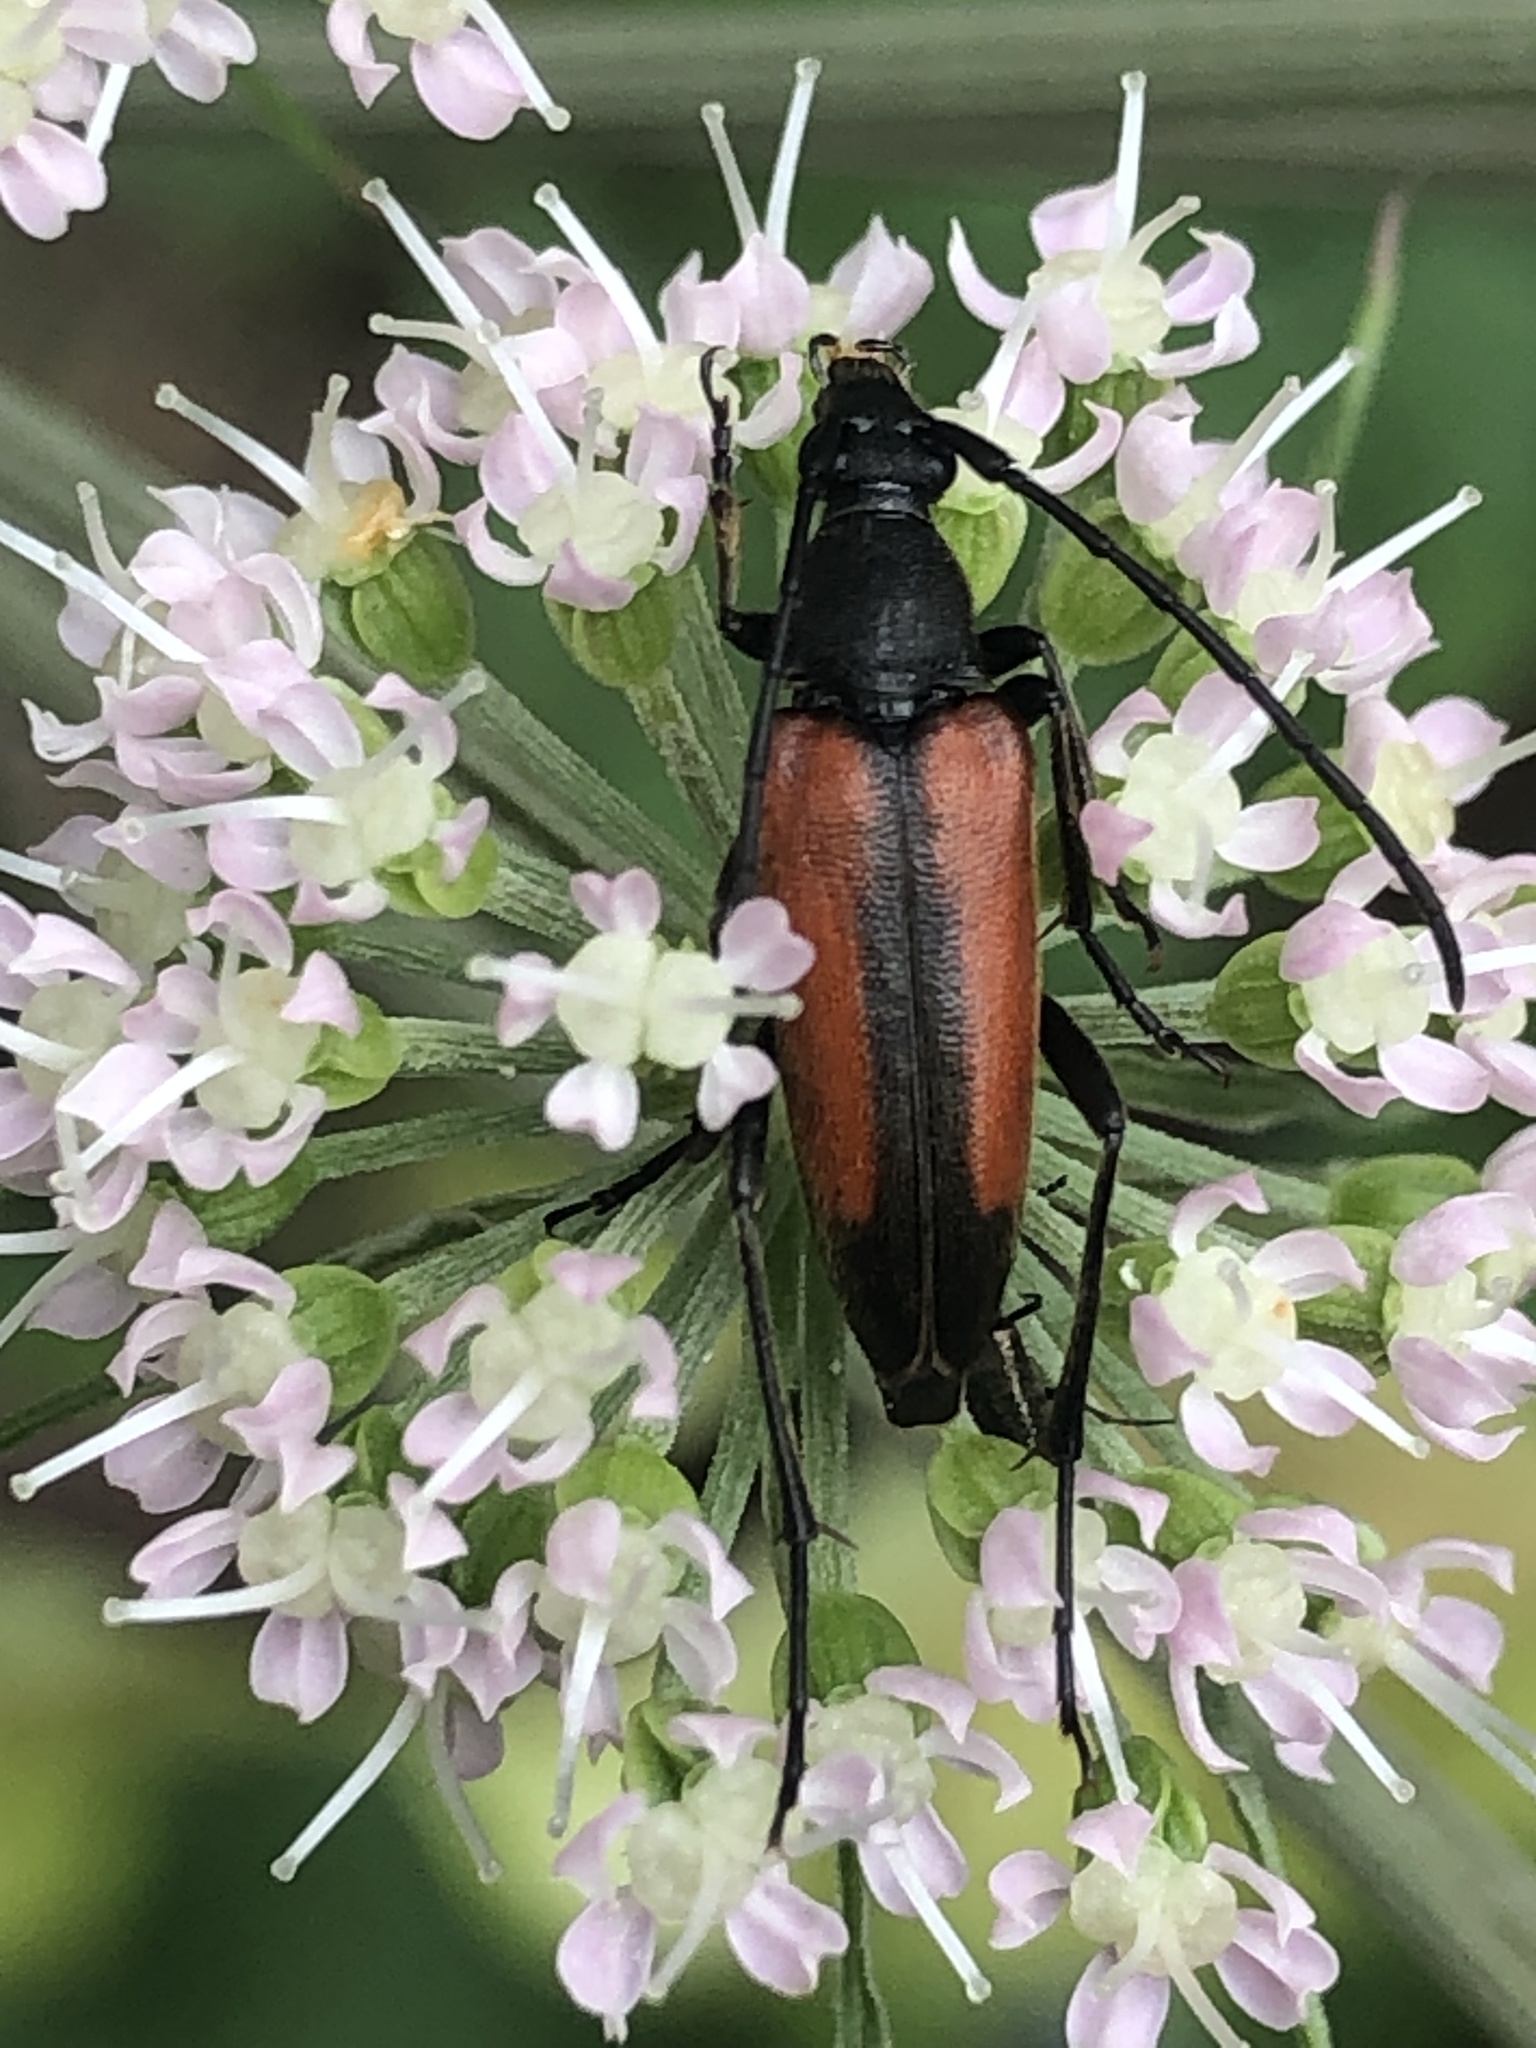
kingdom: Animalia
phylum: Arthropoda
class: Insecta
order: Coleoptera
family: Cerambycidae
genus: Stenurella
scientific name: Stenurella melanura
